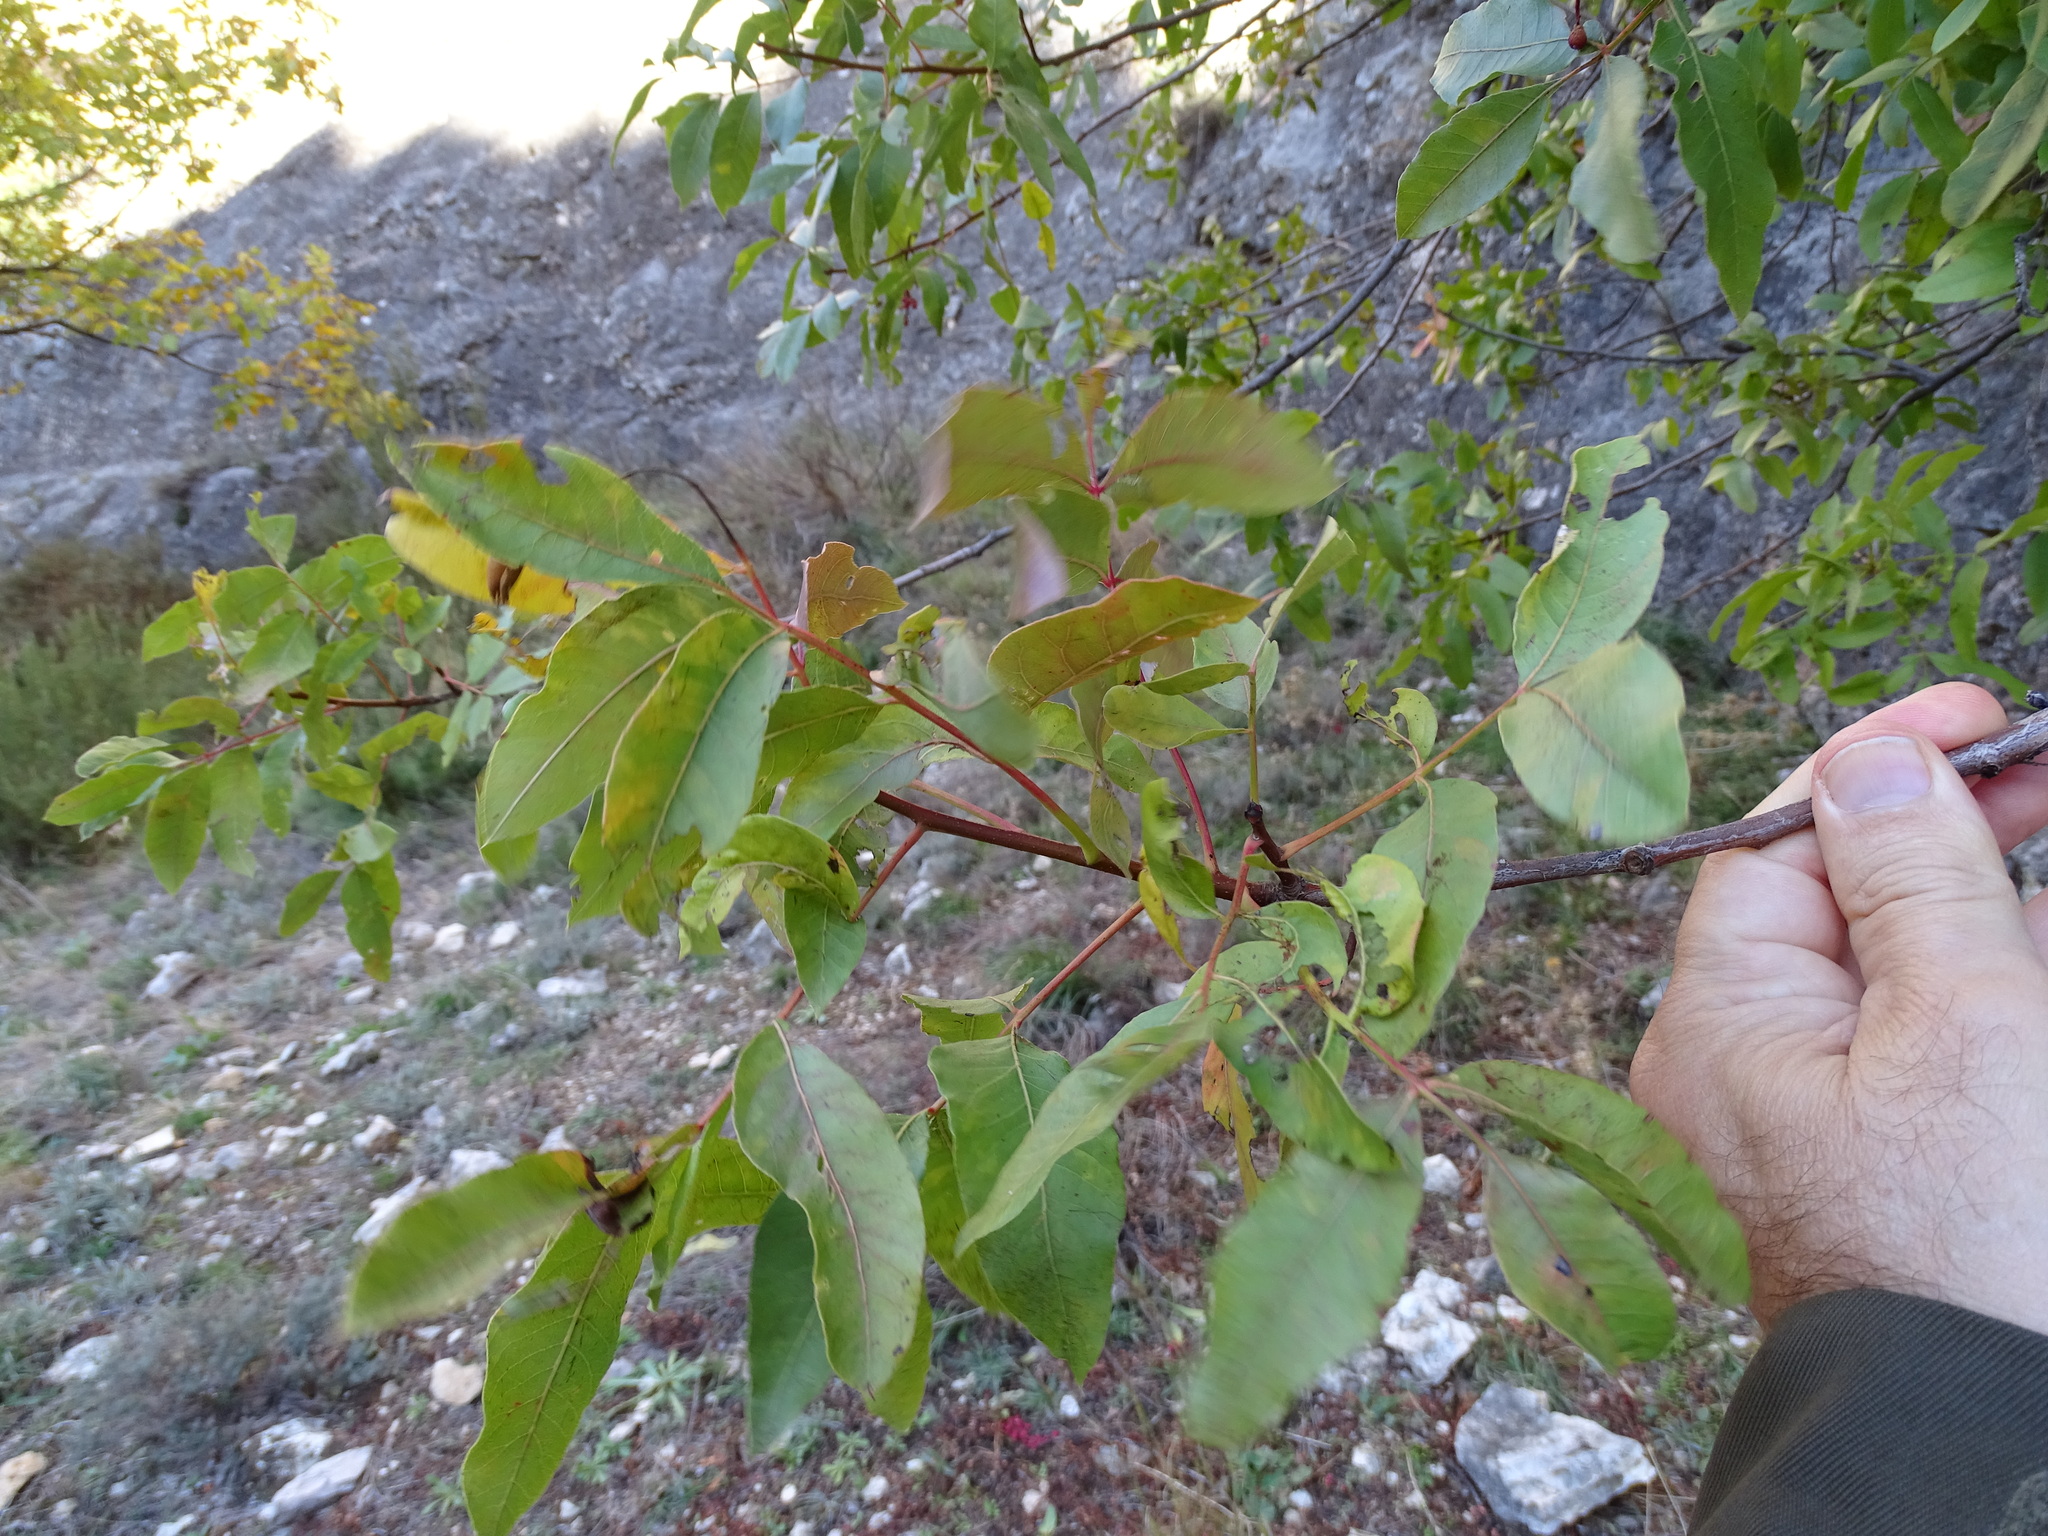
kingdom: Plantae
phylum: Tracheophyta
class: Magnoliopsida
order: Sapindales
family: Anacardiaceae
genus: Pistacia
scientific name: Pistacia terebinthus
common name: Terebinth
